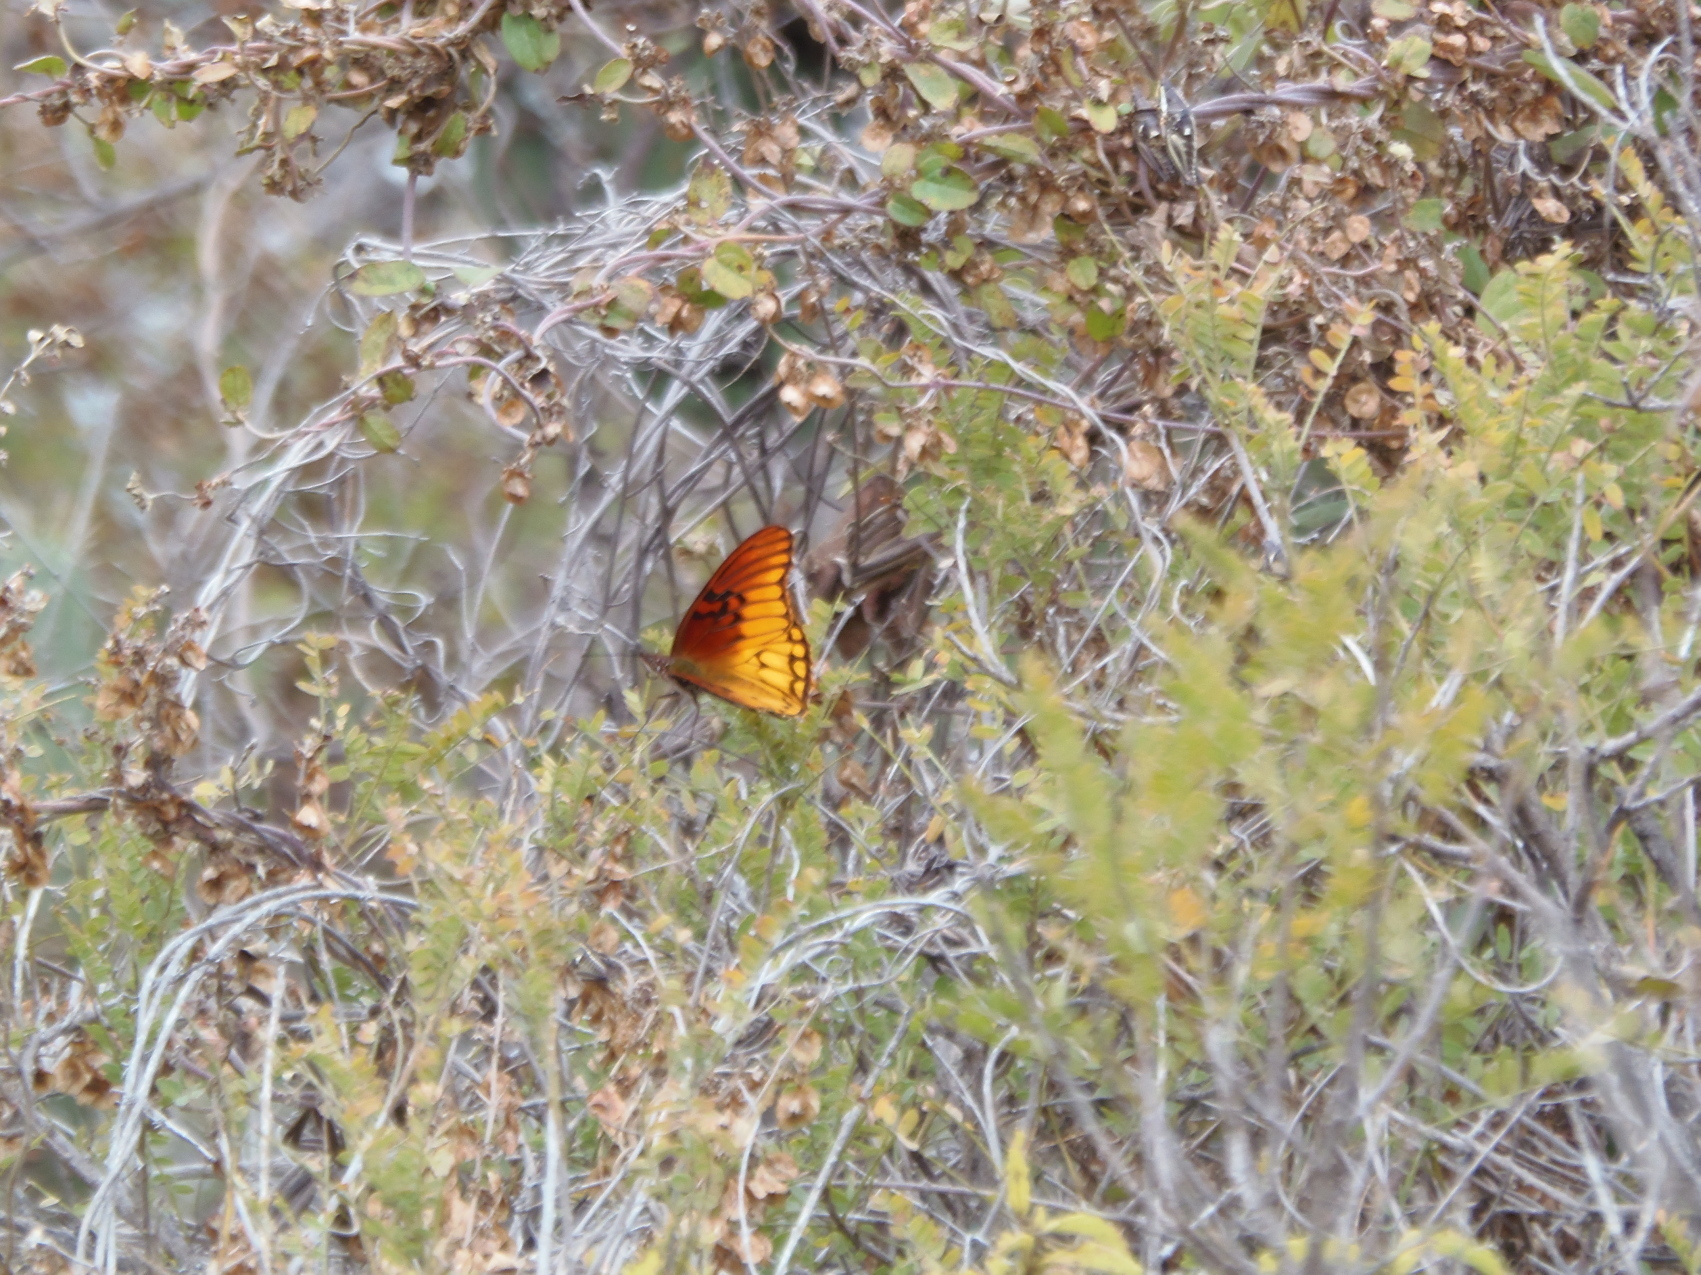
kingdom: Animalia
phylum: Arthropoda
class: Insecta
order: Lepidoptera
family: Nymphalidae
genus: Dione
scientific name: Dione moneta
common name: Mexican silverspot
